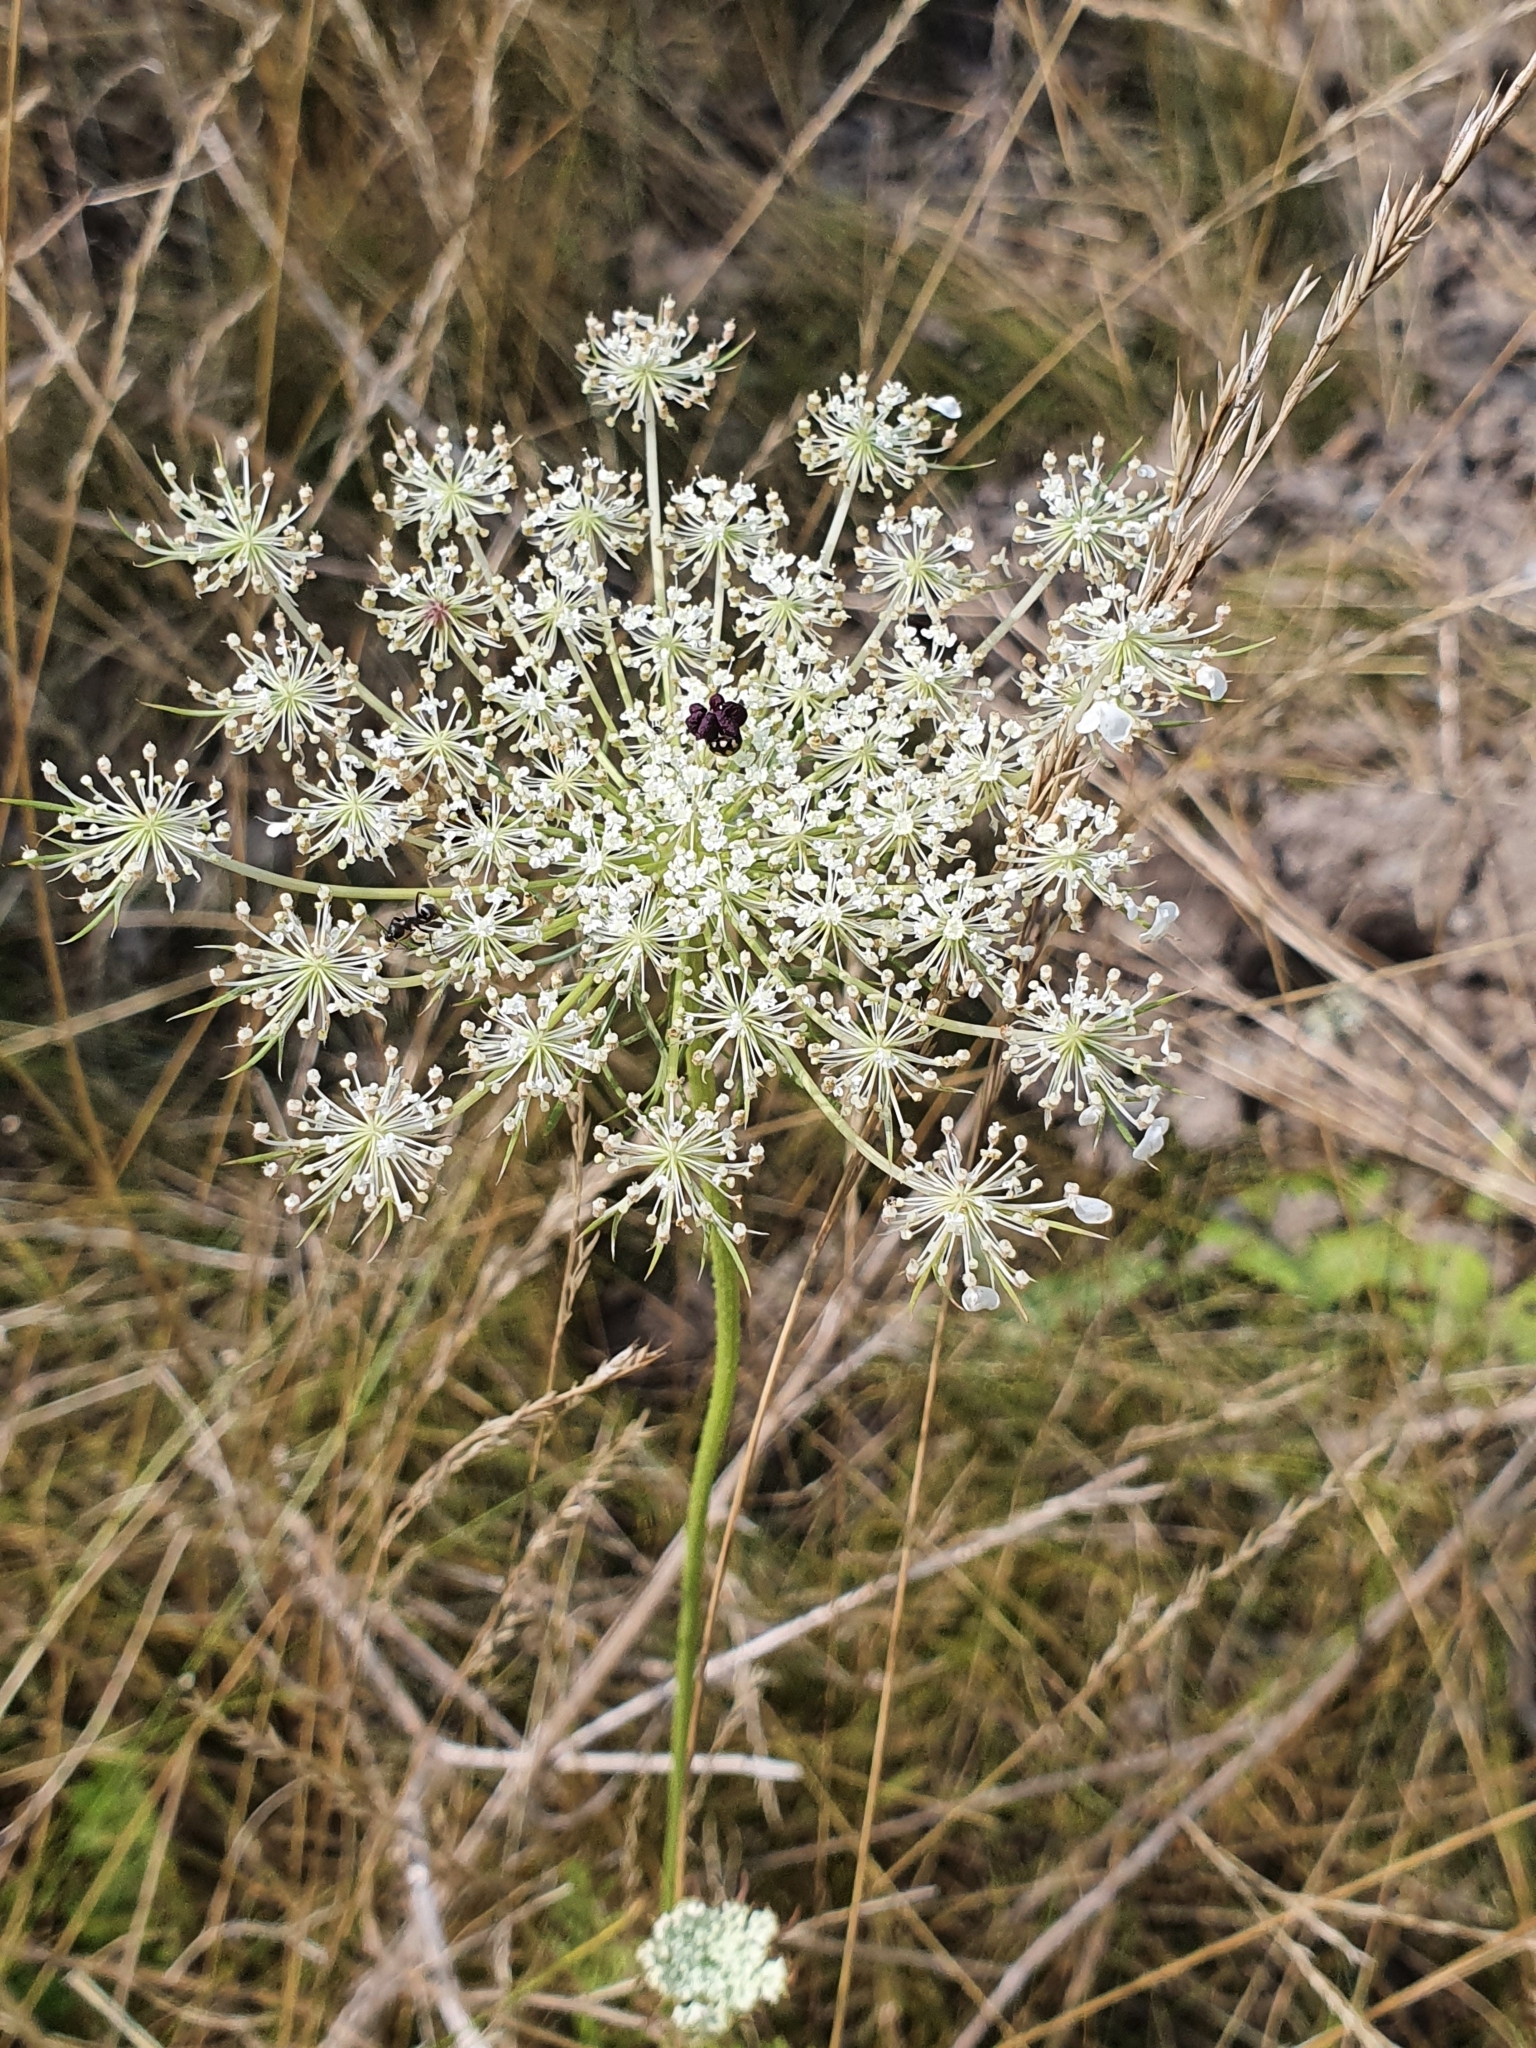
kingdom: Plantae
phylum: Tracheophyta
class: Magnoliopsida
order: Apiales
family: Apiaceae
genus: Daucus
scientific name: Daucus carota
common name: Wild carrot
